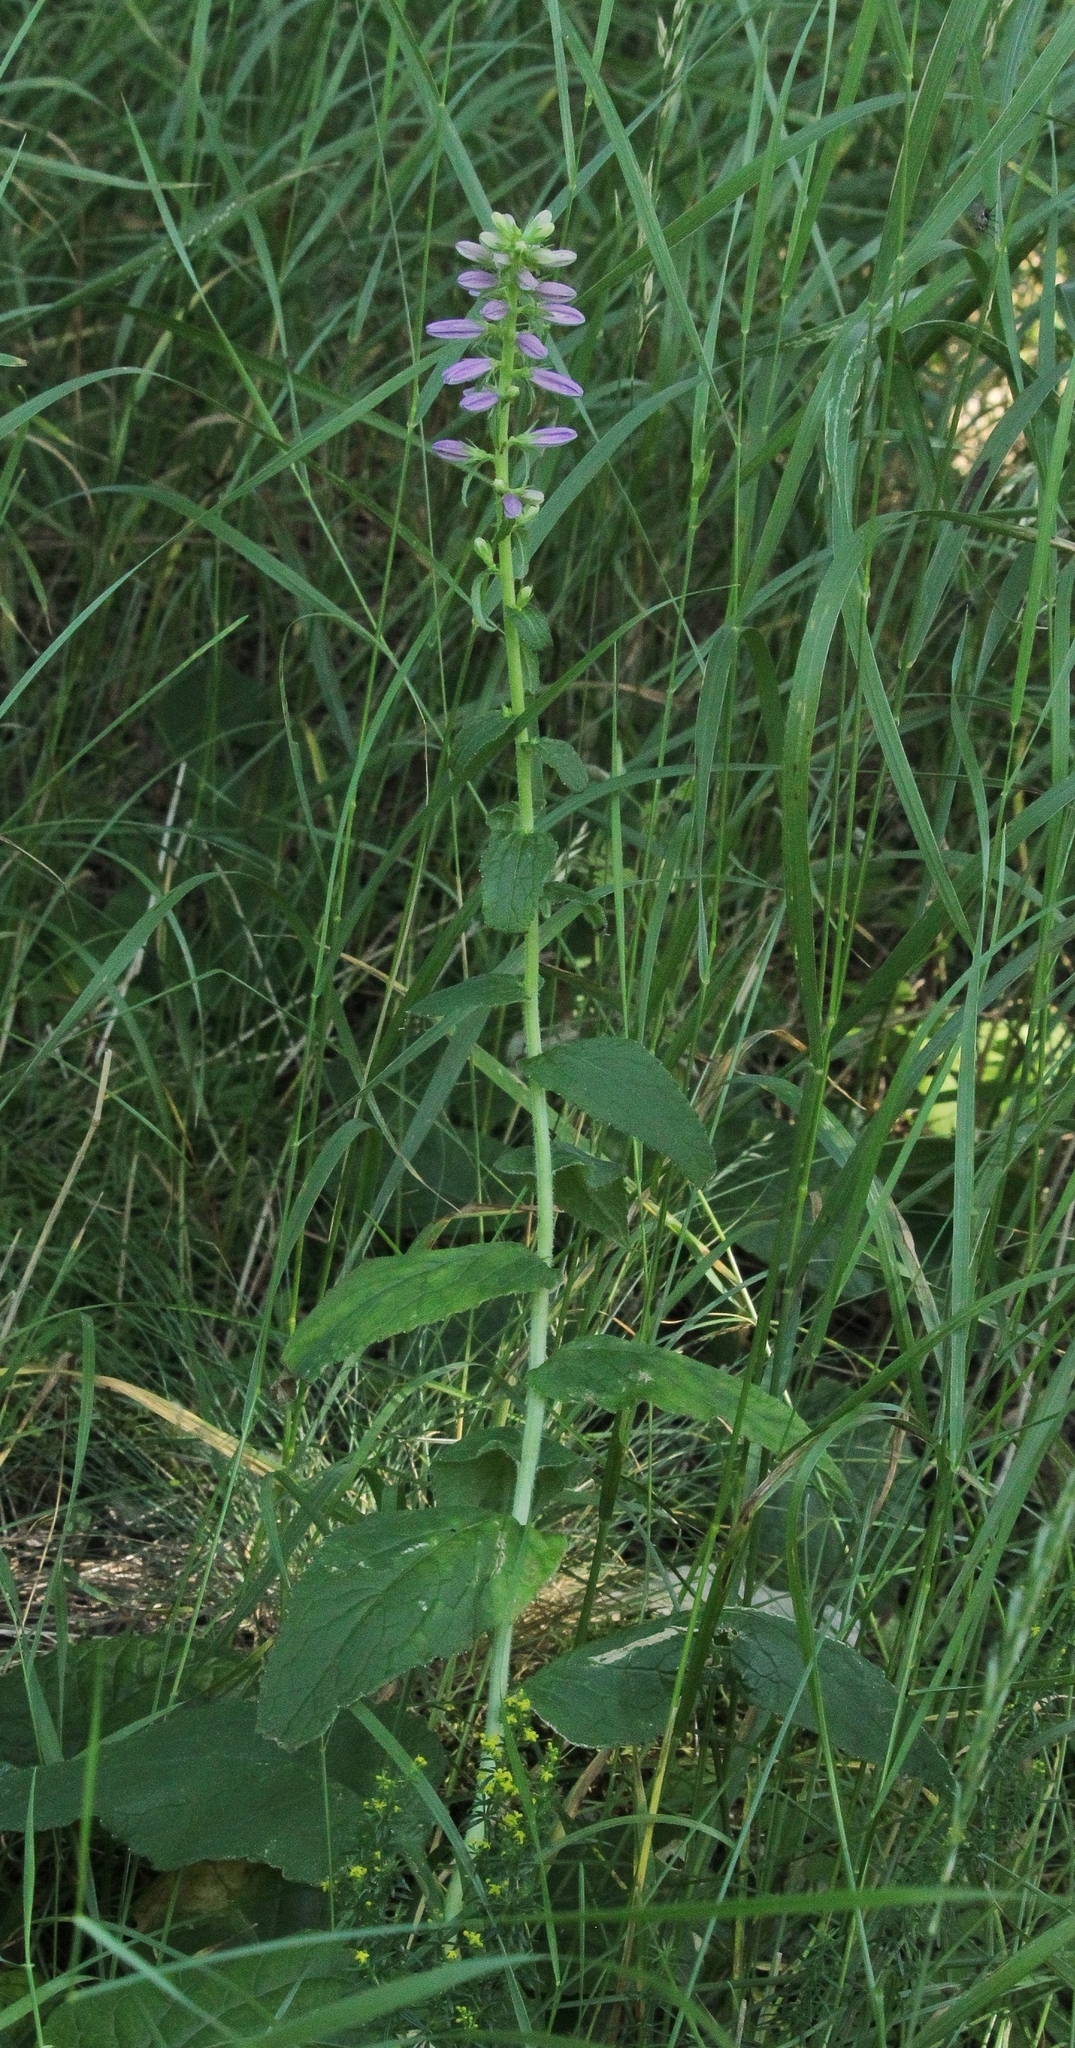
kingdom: Plantae
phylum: Tracheophyta
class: Magnoliopsida
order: Asterales
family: Campanulaceae
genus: Campanula
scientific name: Campanula bononiensis
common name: Pale bellflower
